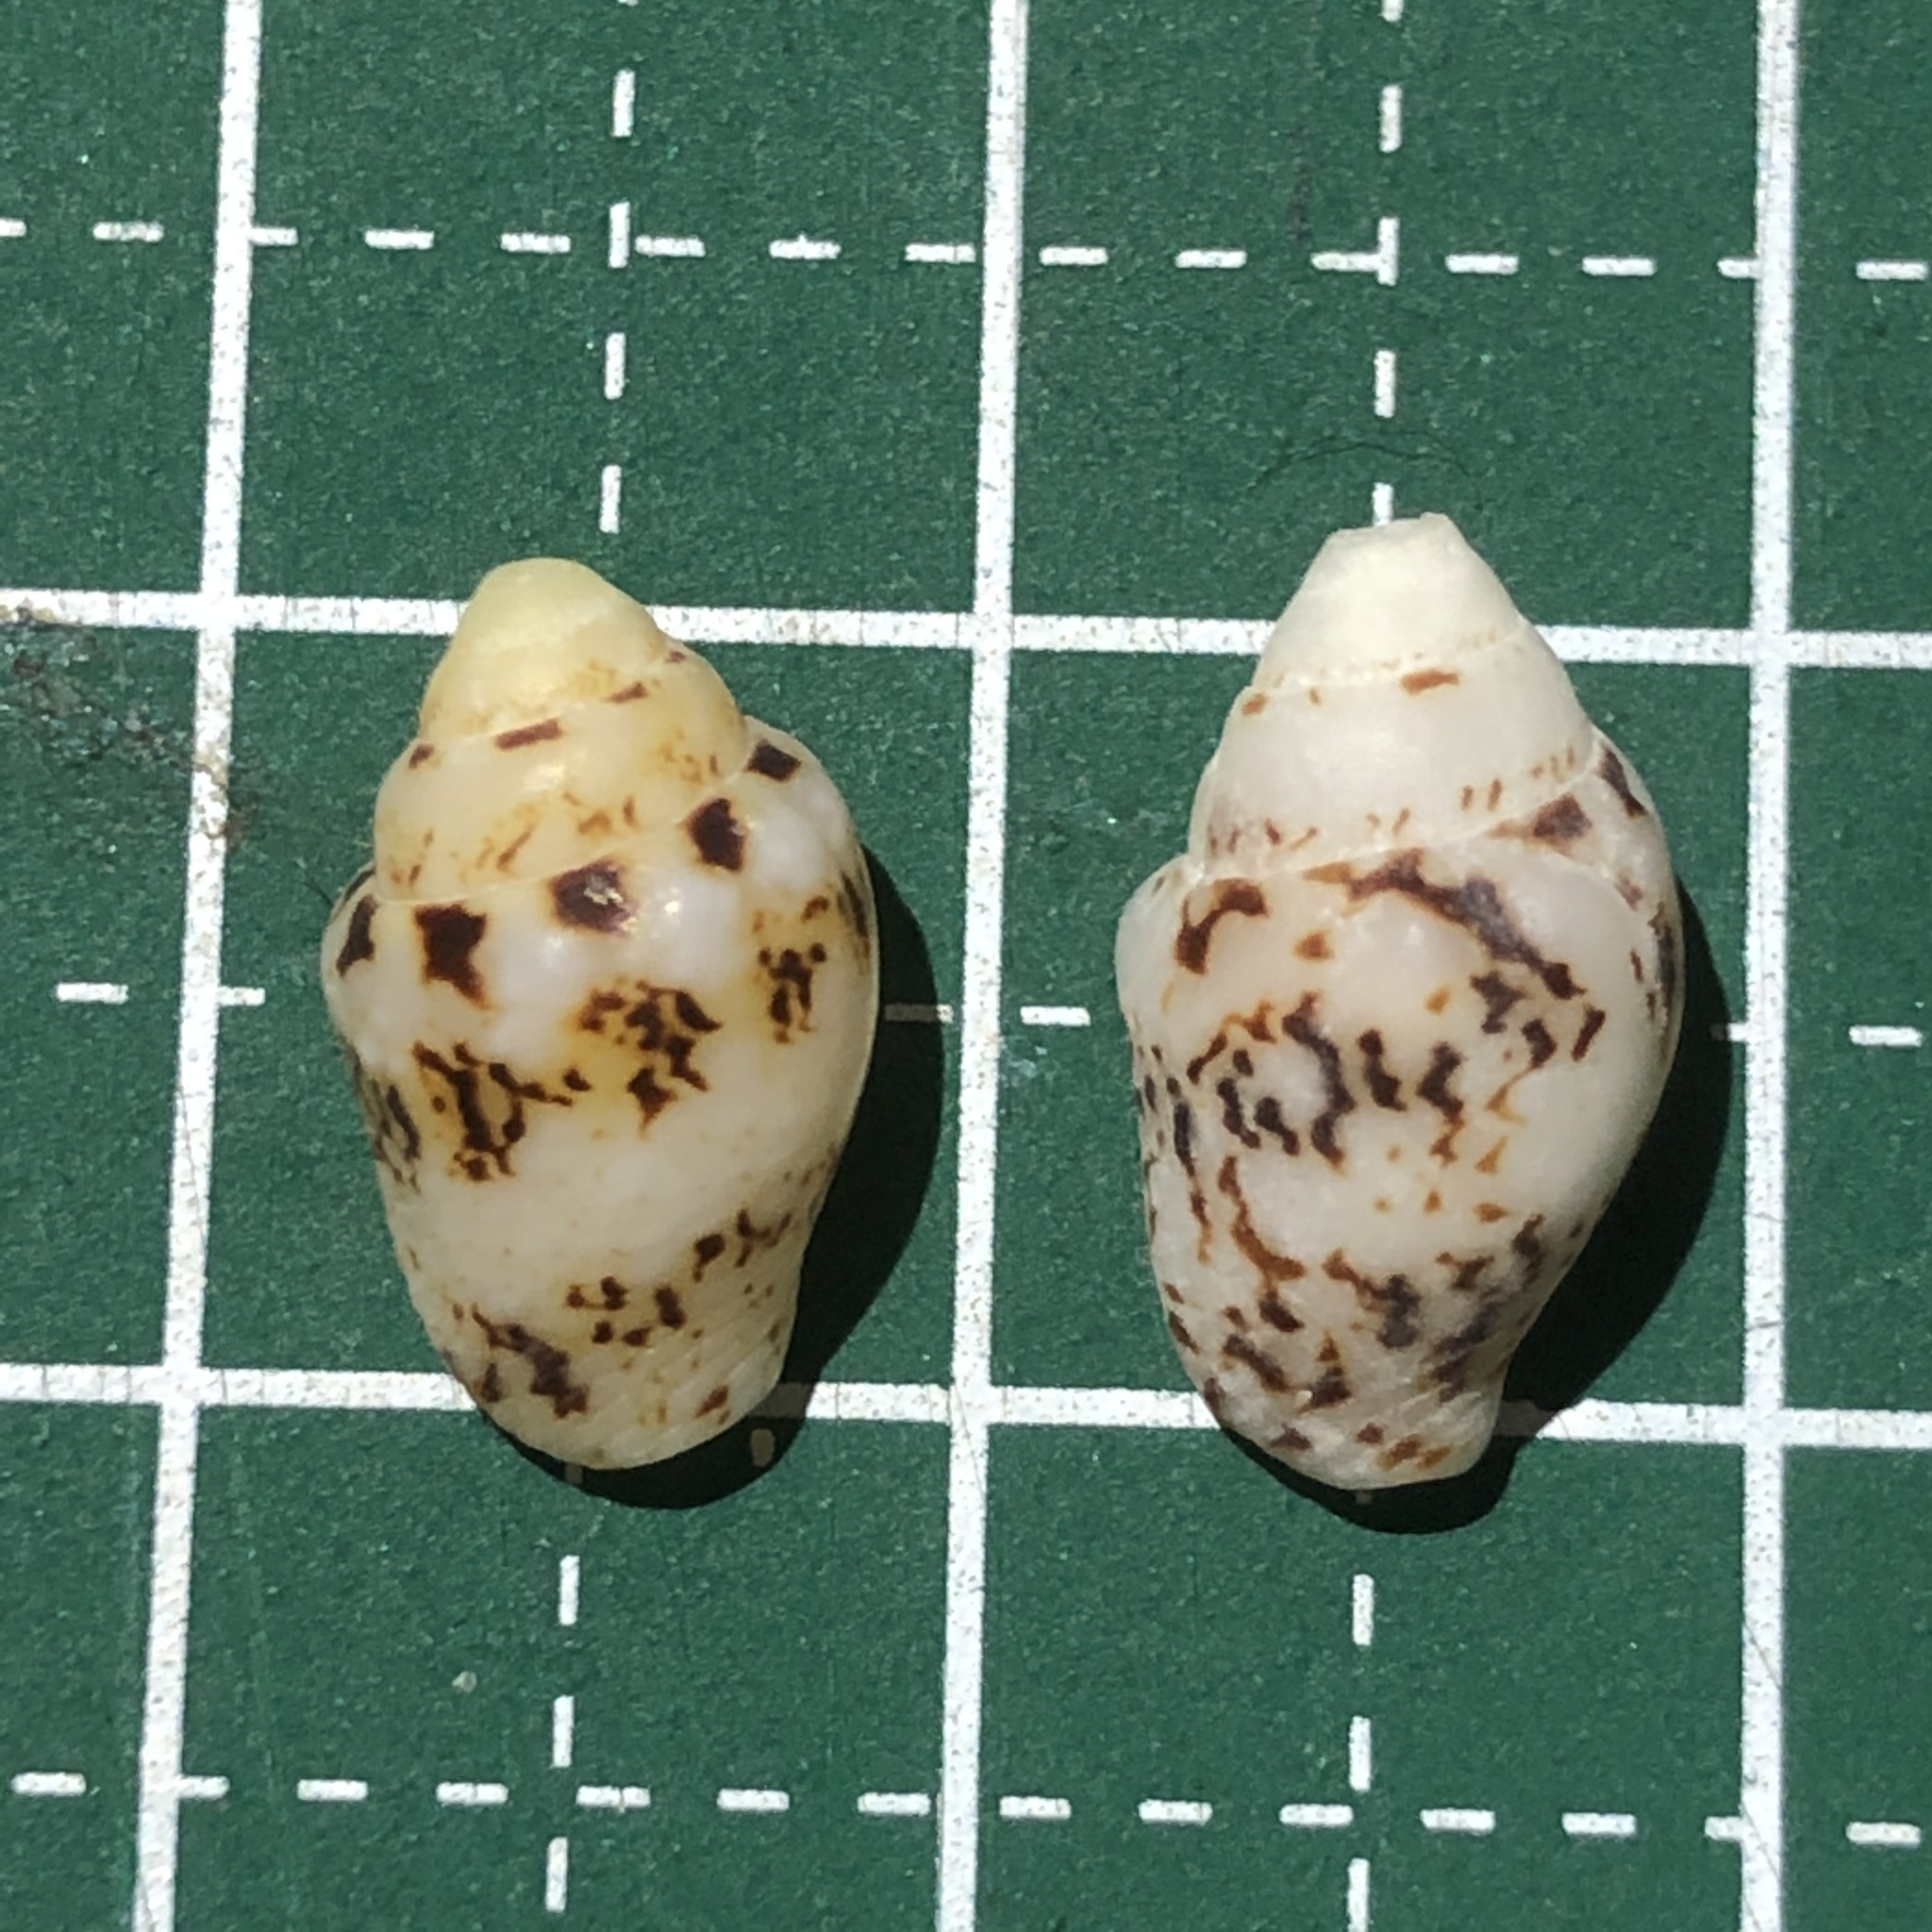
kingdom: Animalia
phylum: Mollusca
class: Gastropoda
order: Neogastropoda
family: Columbellidae
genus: Euplica
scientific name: Euplica scripta
